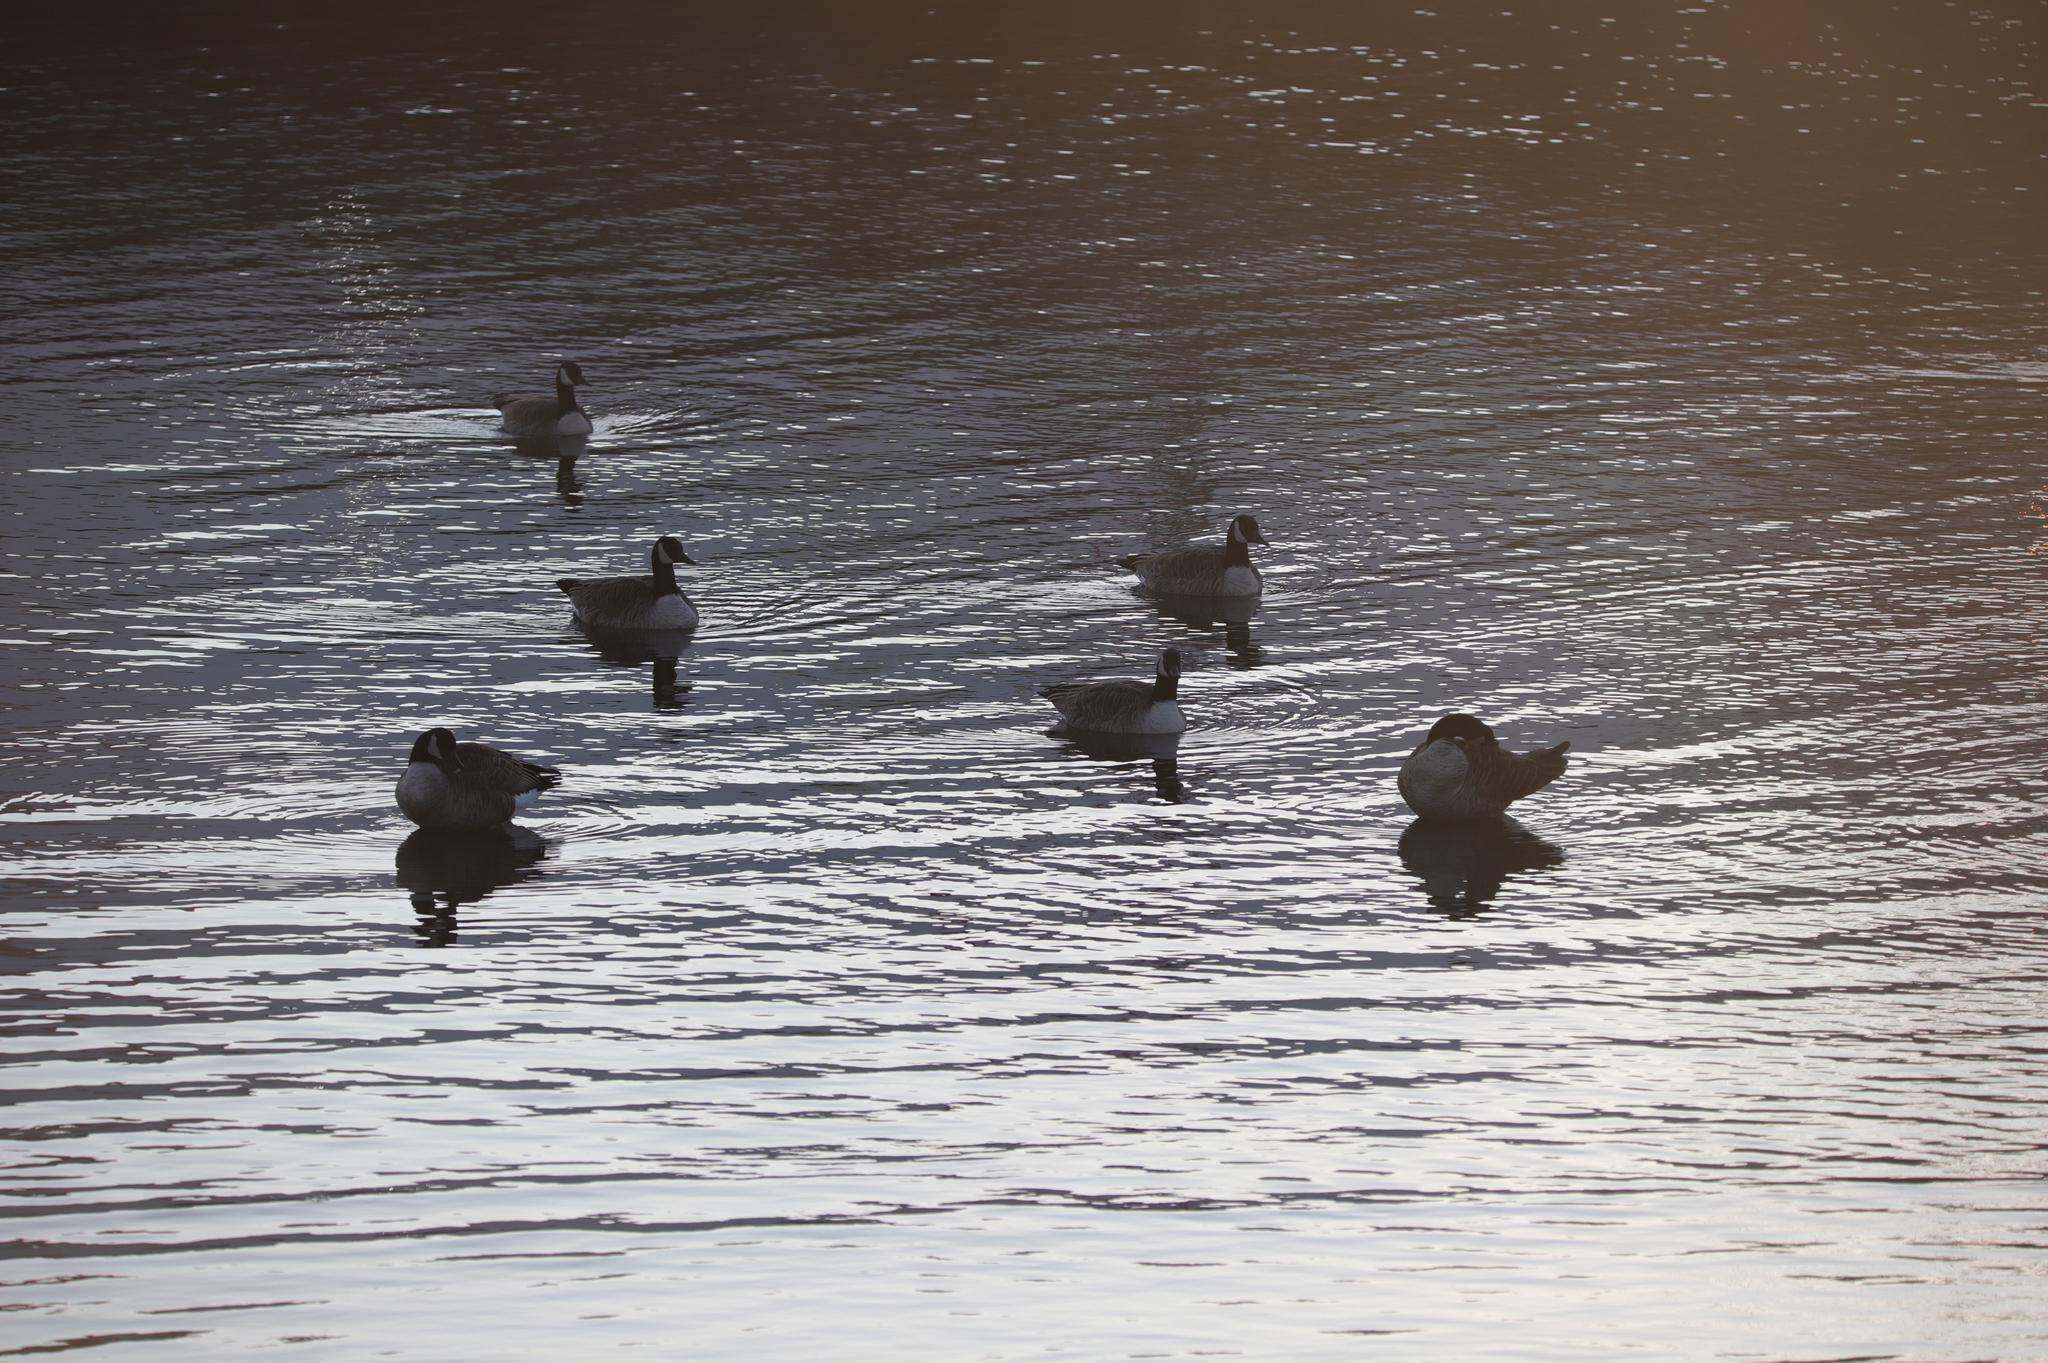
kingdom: Animalia
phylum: Chordata
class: Aves
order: Anseriformes
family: Anatidae
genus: Branta
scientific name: Branta canadensis
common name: Canada goose
